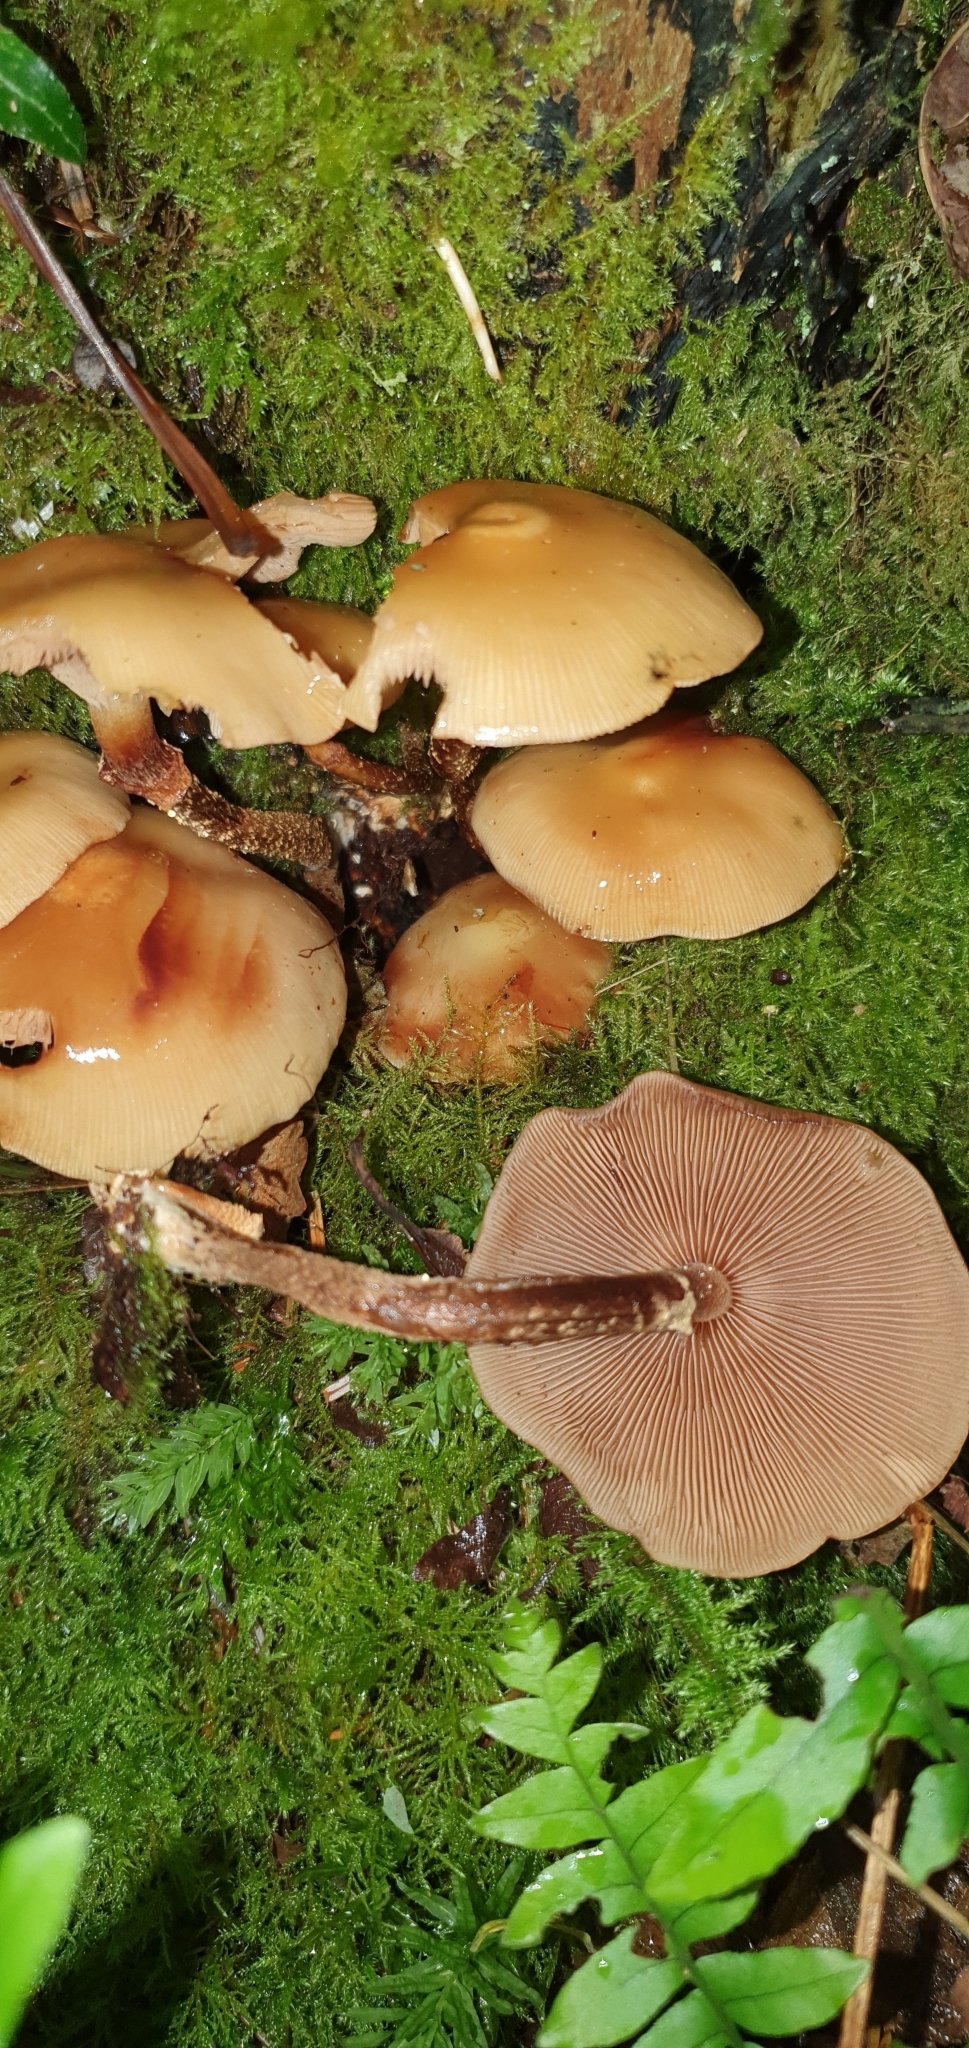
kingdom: Fungi
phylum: Basidiomycota
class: Agaricomycetes
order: Agaricales
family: Strophariaceae
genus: Kuehneromyces
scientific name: Kuehneromyces mutabilis
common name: Sheathed woodtuft
